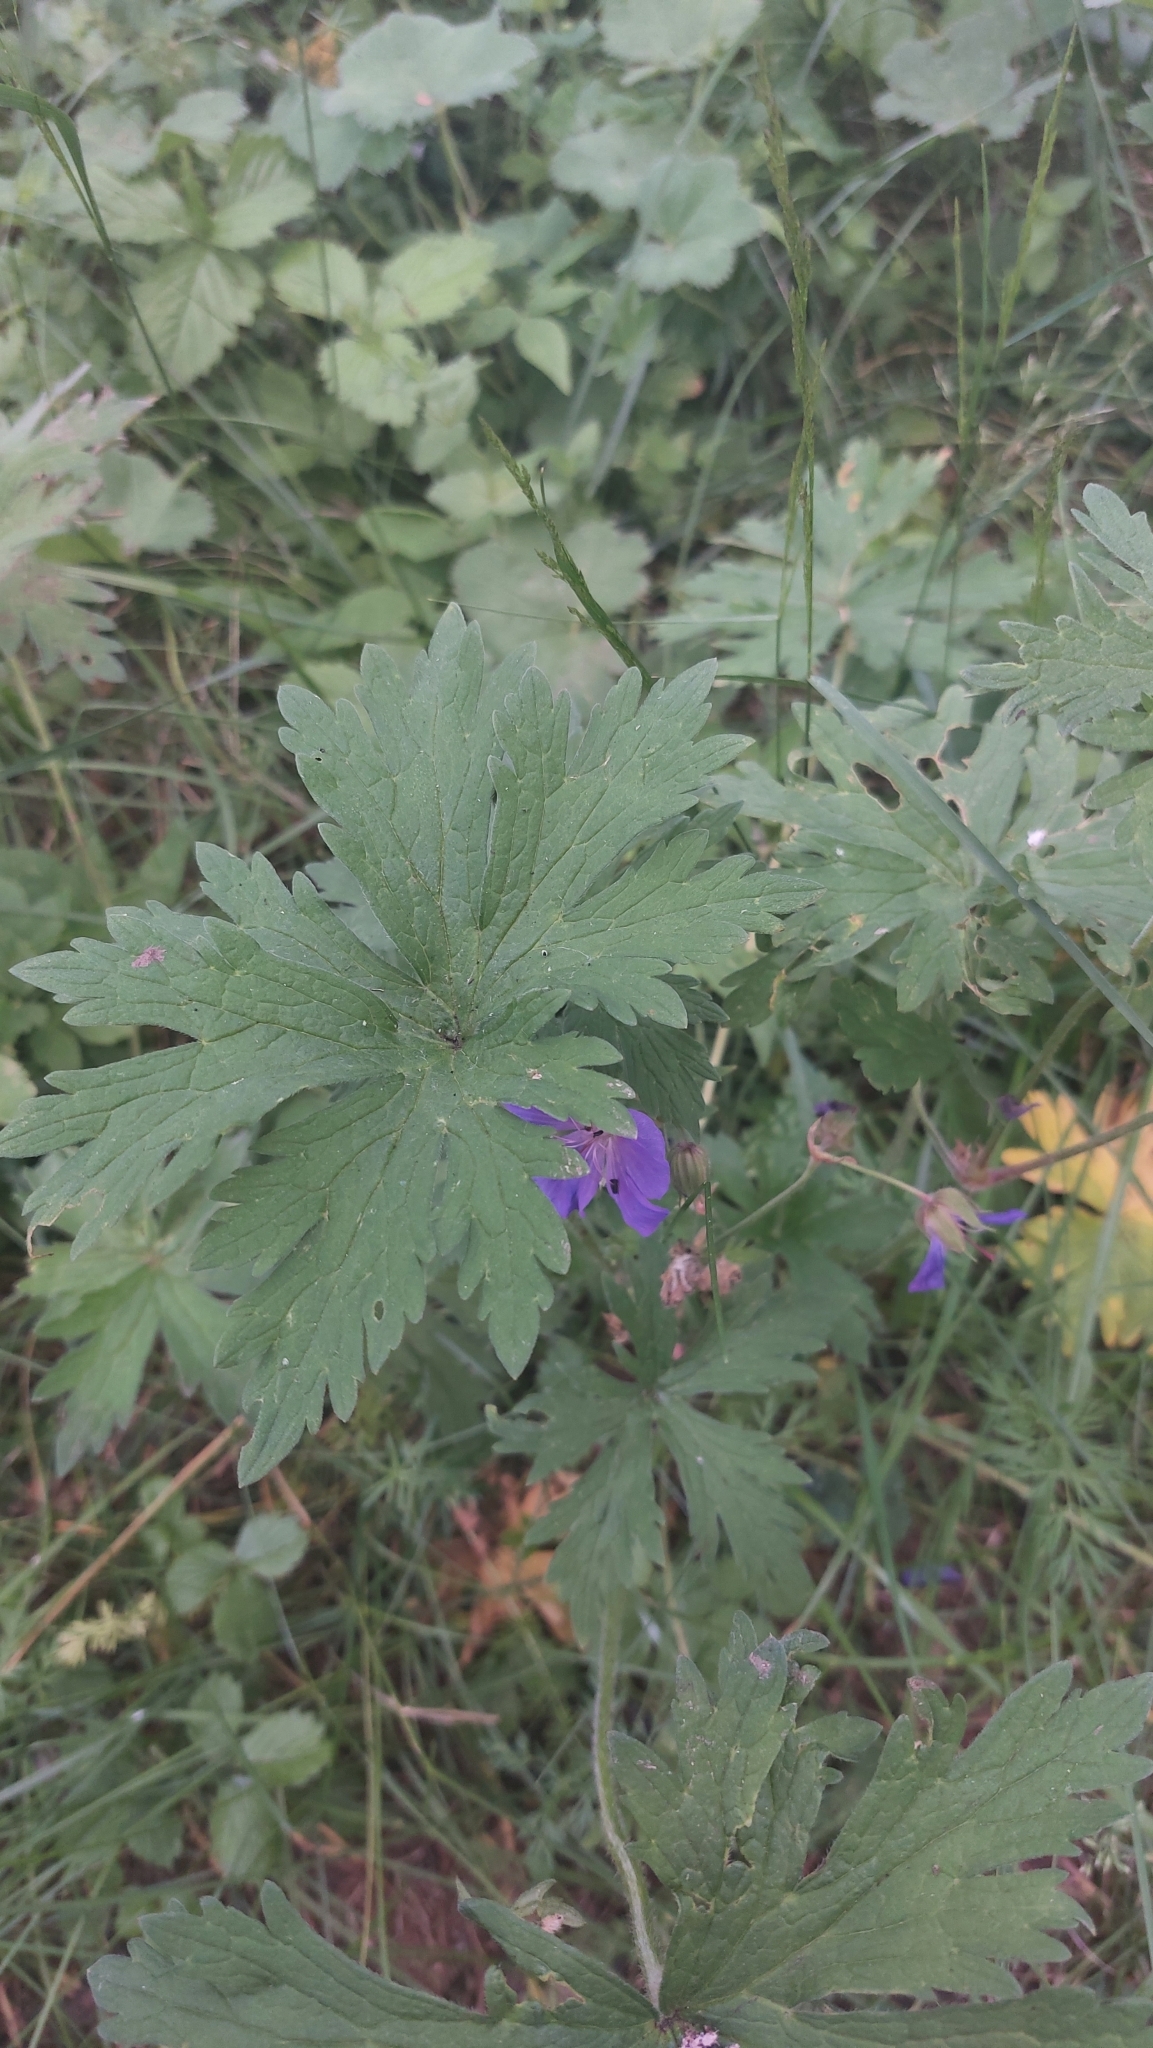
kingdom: Plantae
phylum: Tracheophyta
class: Magnoliopsida
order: Geraniales
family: Geraniaceae
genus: Geranium
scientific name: Geranium pratense
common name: Meadow crane's-bill
